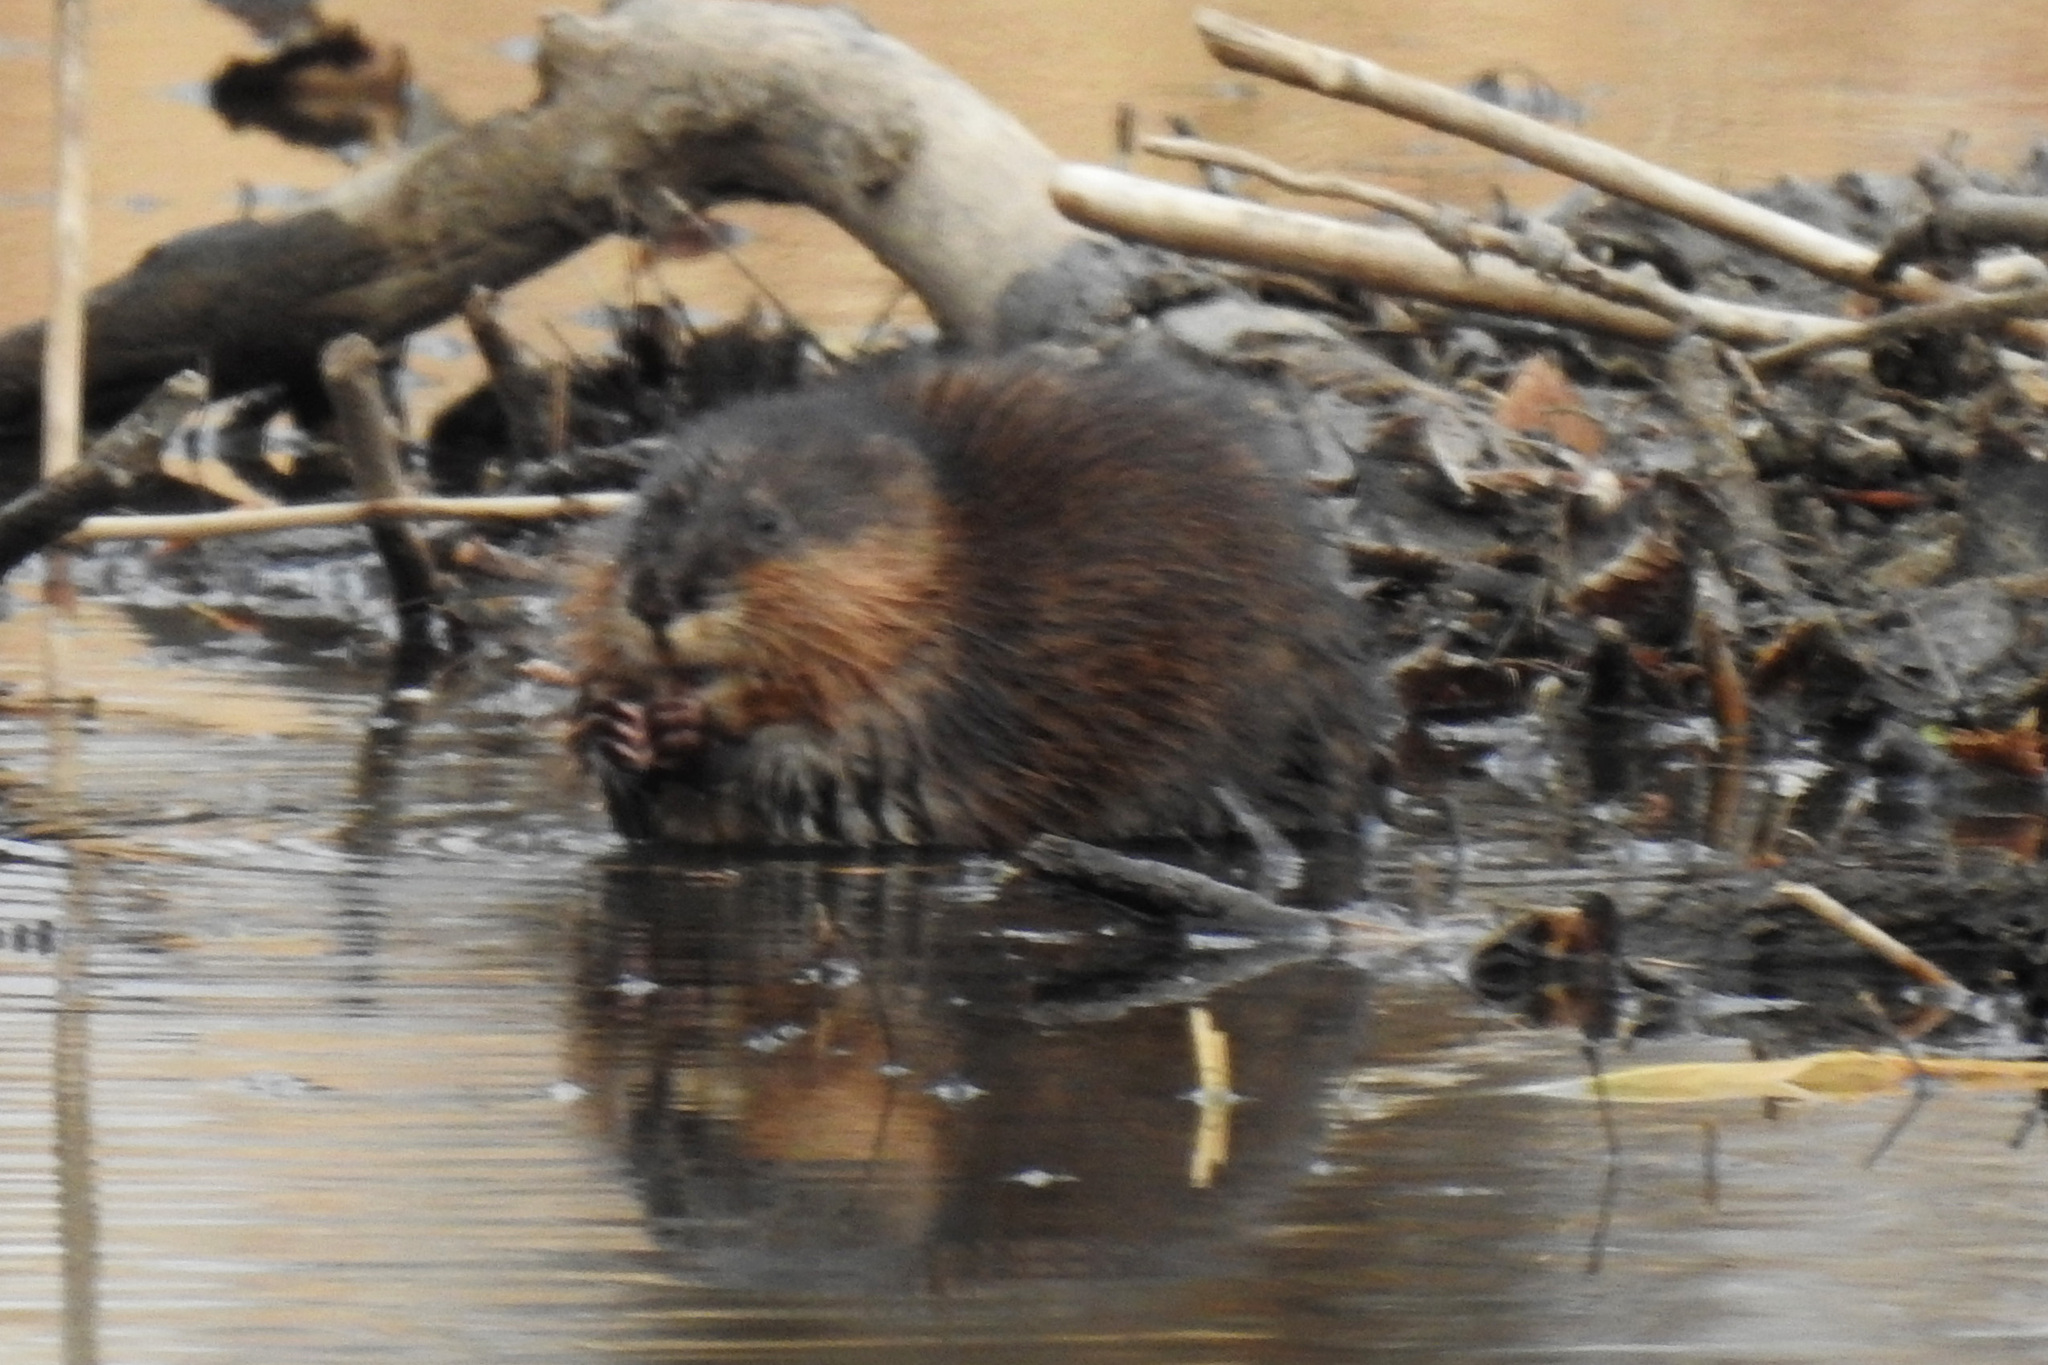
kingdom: Animalia
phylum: Chordata
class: Mammalia
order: Rodentia
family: Cricetidae
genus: Ondatra
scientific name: Ondatra zibethicus
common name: Muskrat
